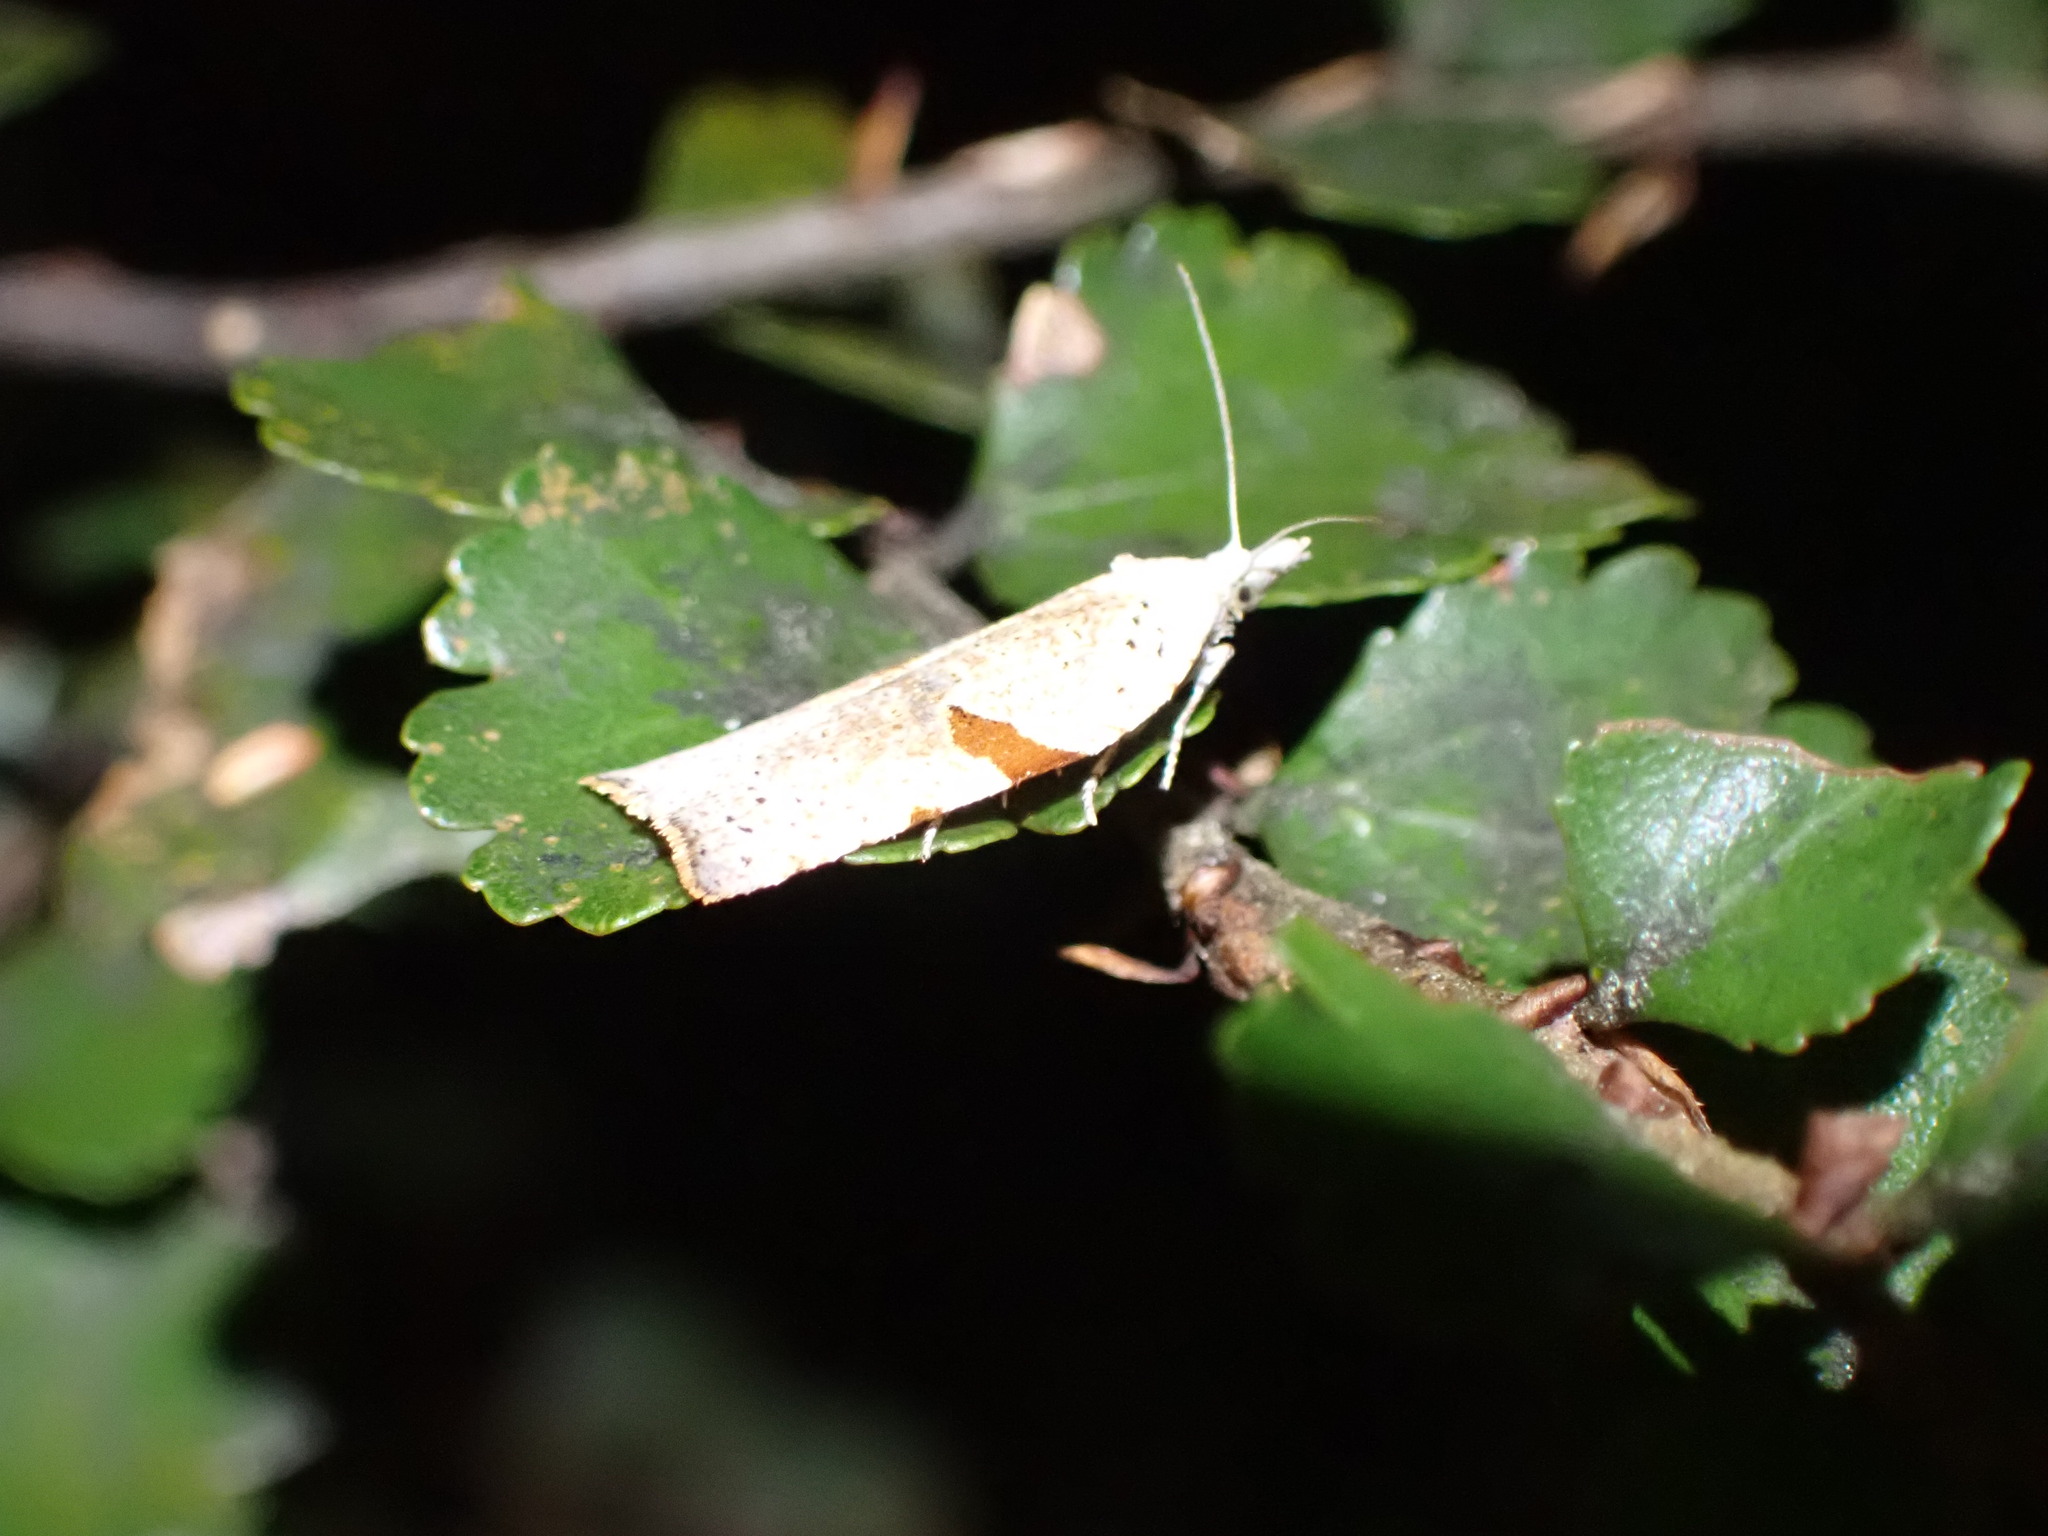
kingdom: Animalia
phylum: Arthropoda
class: Insecta
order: Lepidoptera
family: Tortricidae
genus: Leucotenes
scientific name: Leucotenes coprosmae
